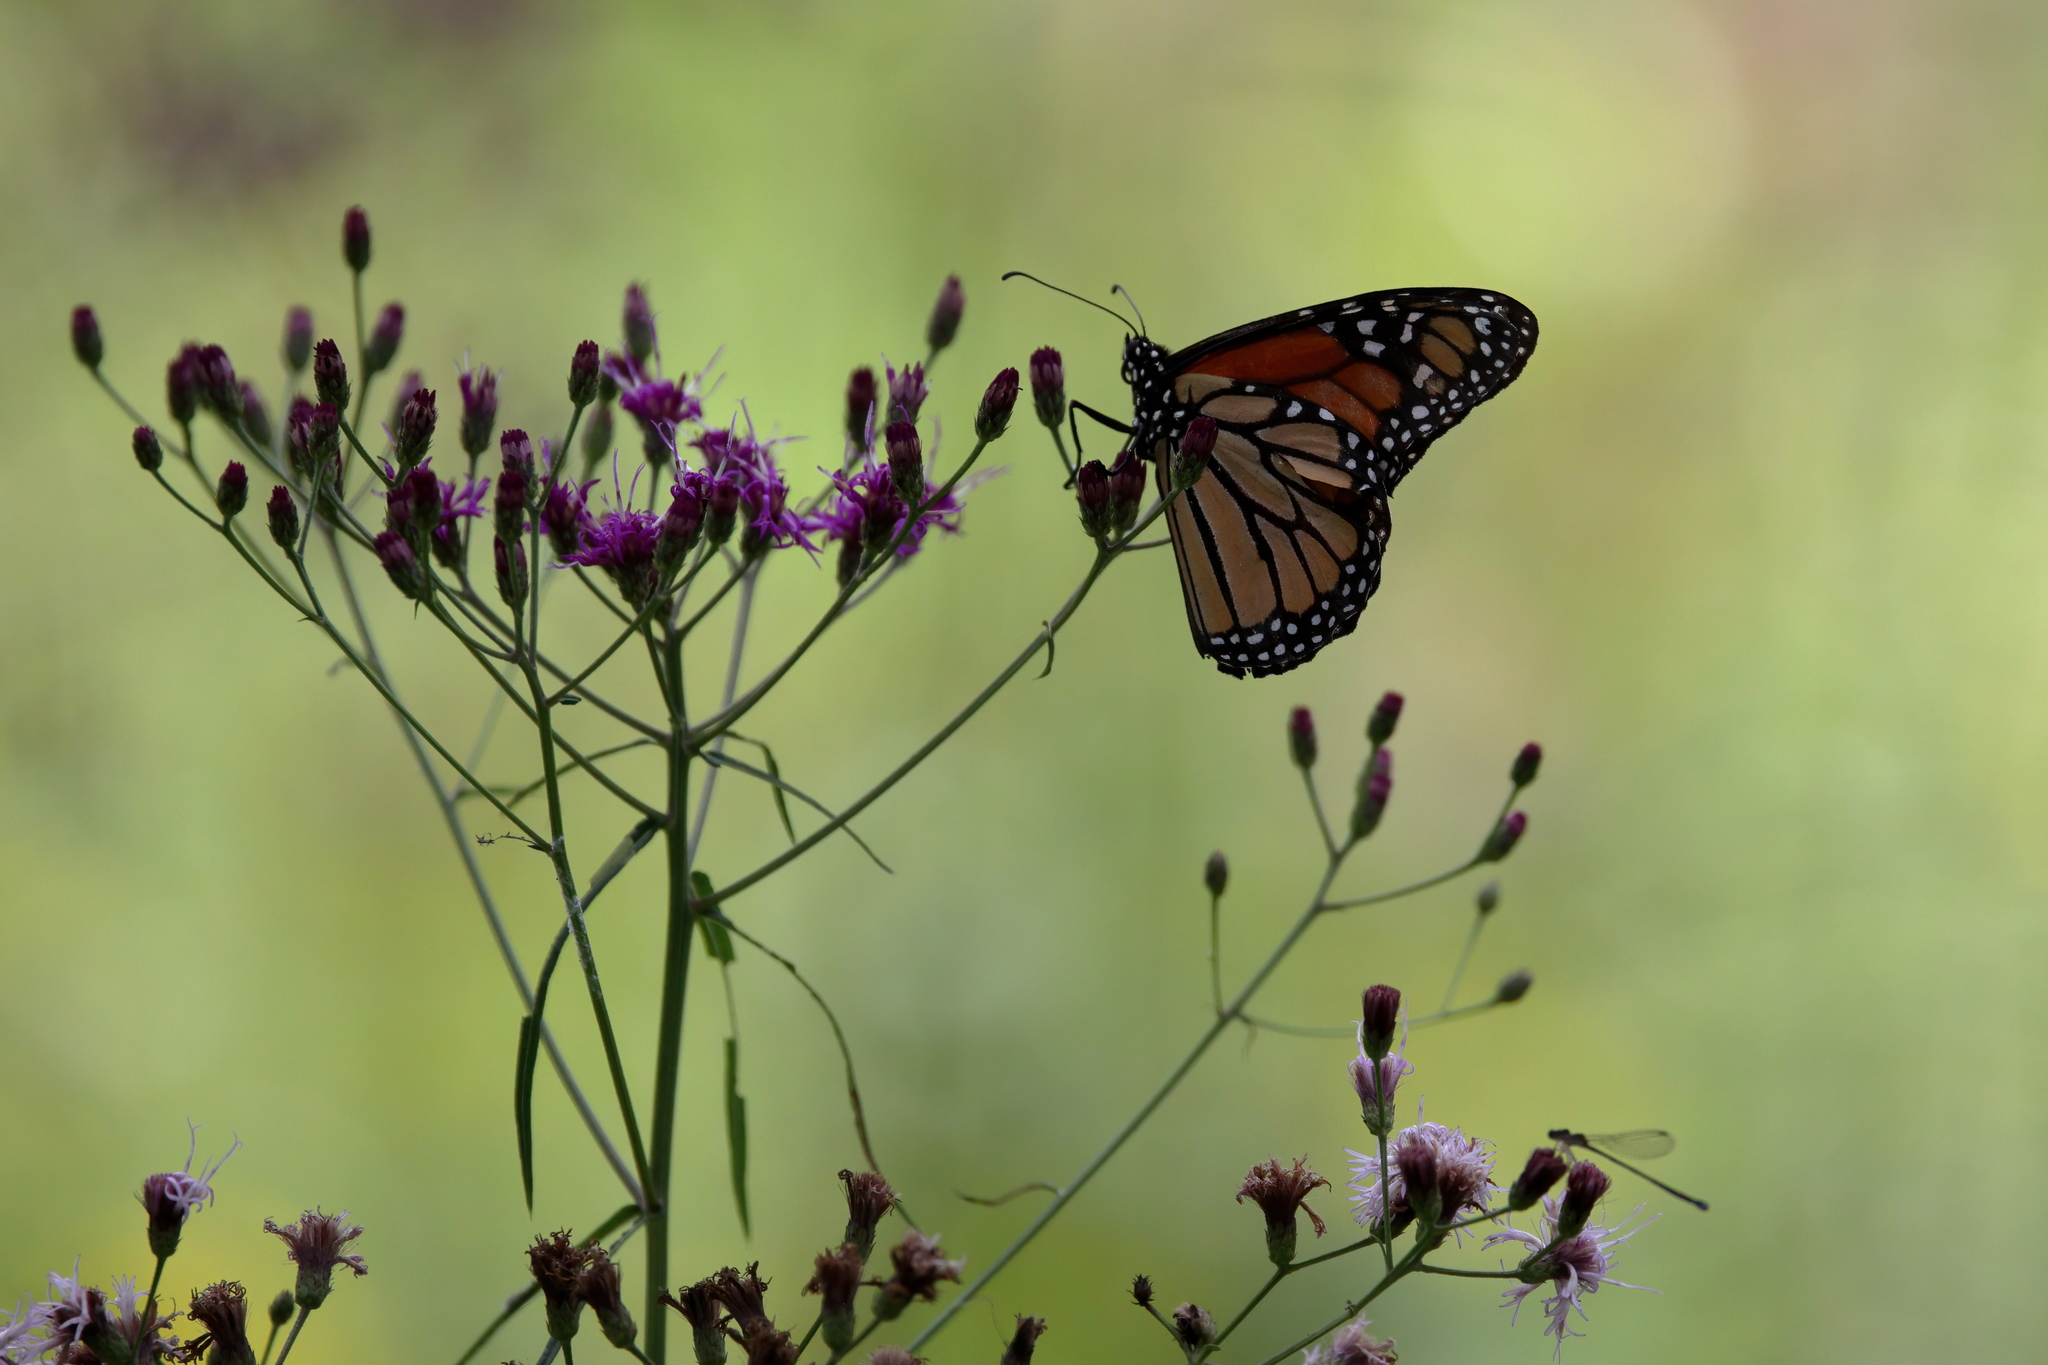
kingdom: Animalia
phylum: Arthropoda
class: Insecta
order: Lepidoptera
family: Nymphalidae
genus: Danaus
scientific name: Danaus plexippus
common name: Monarch
